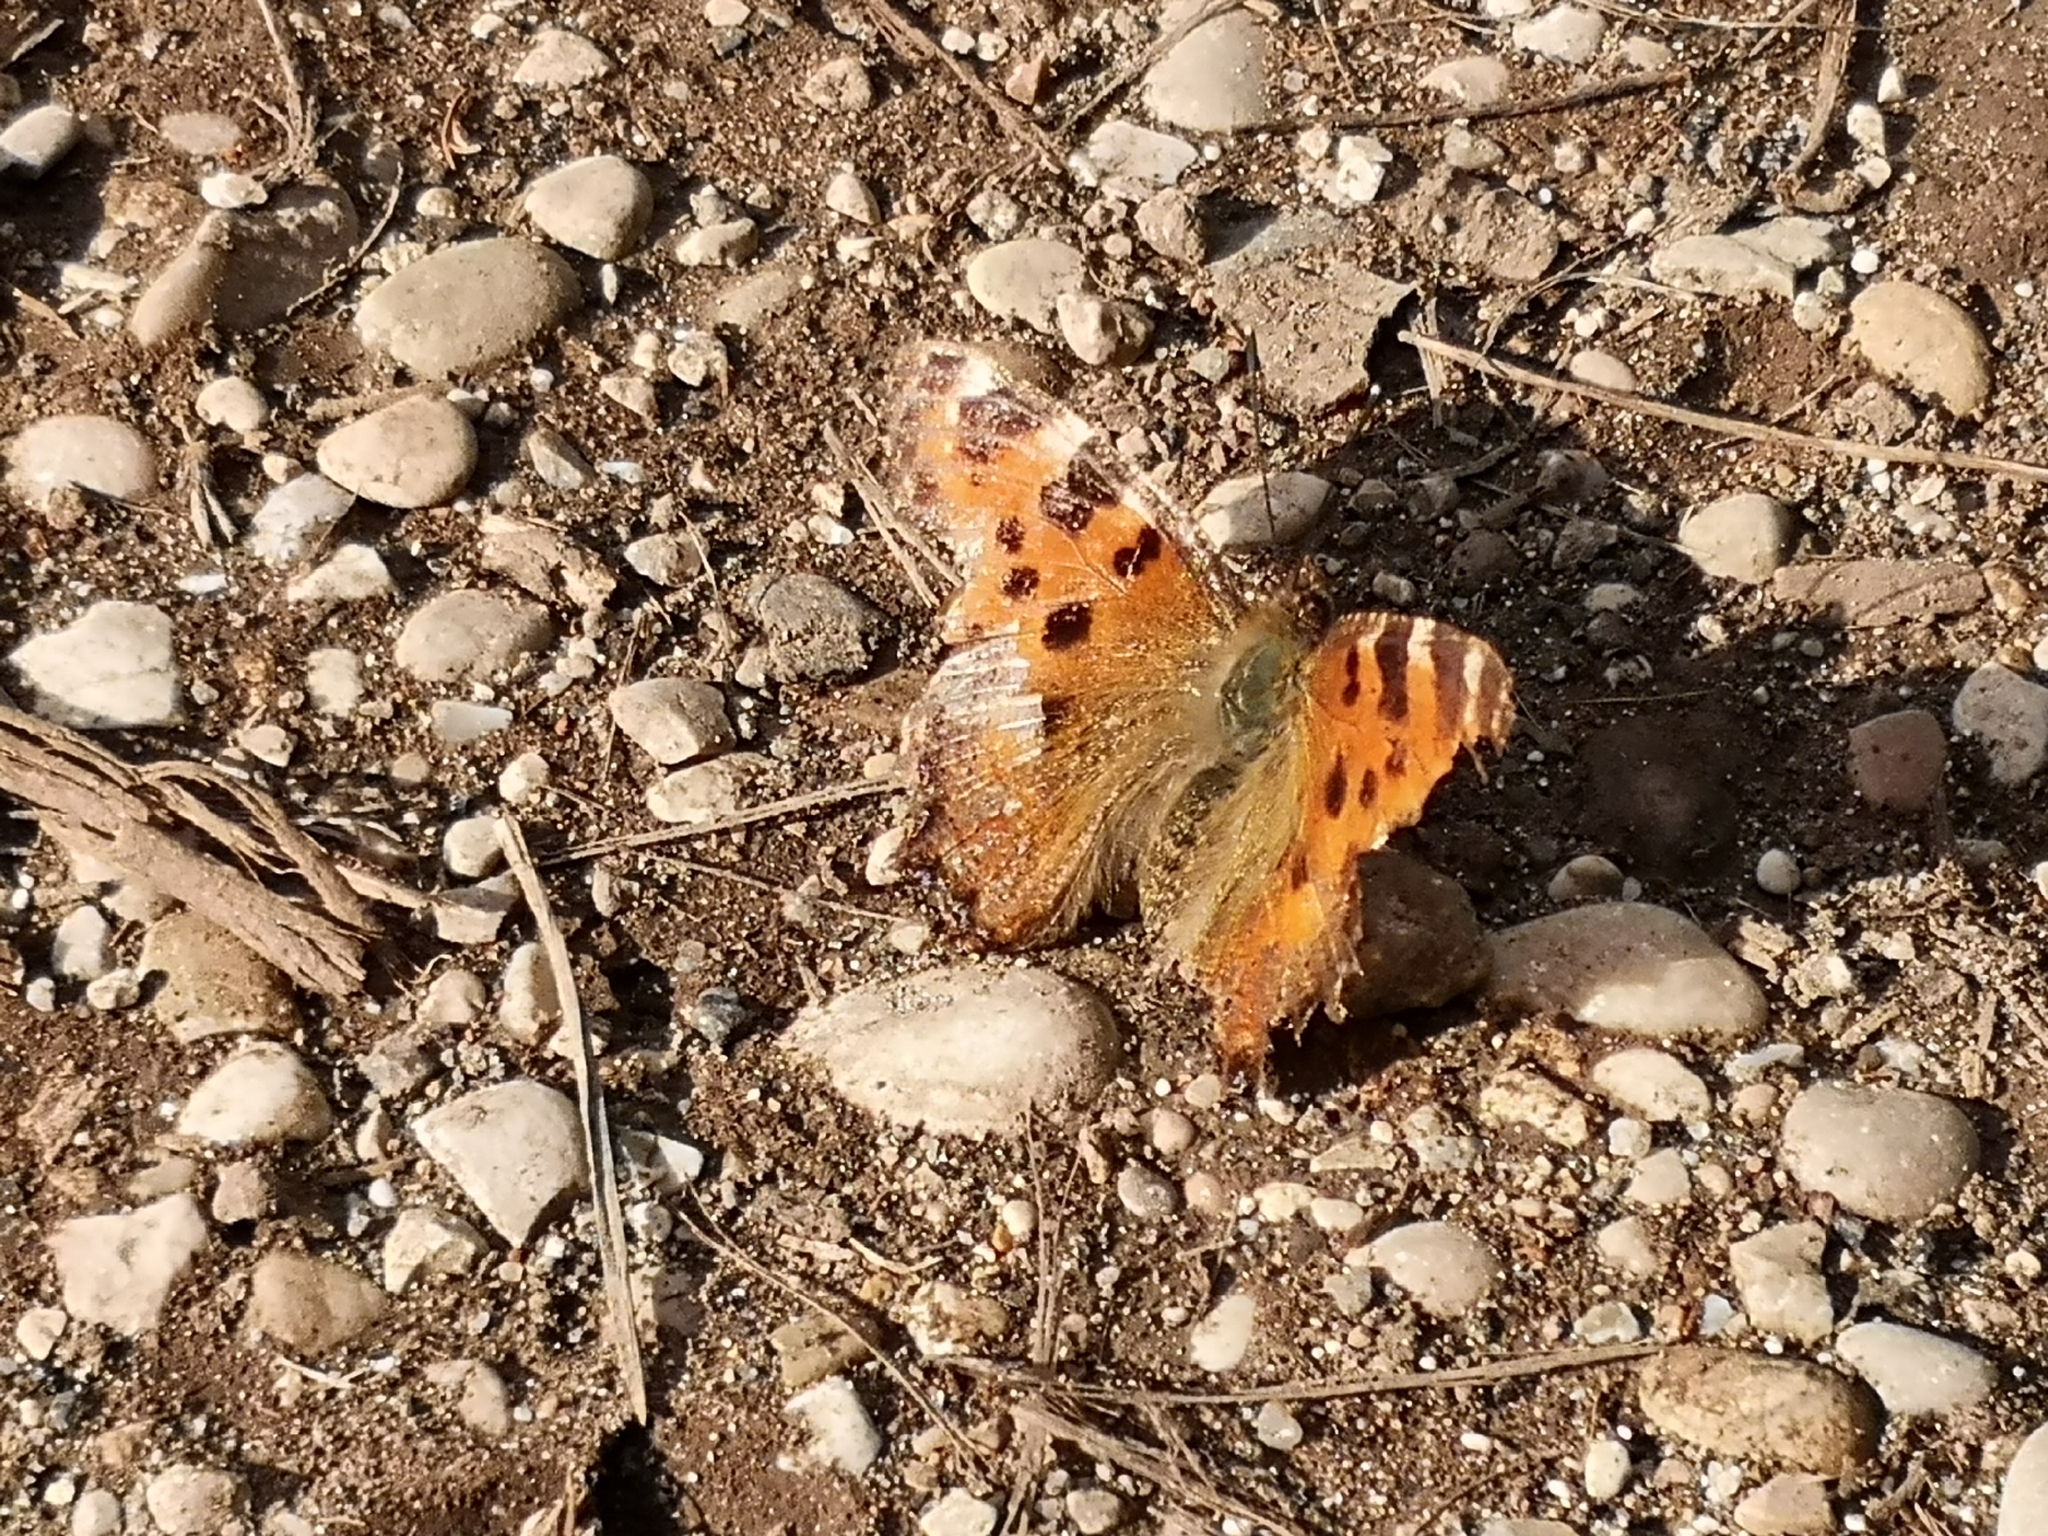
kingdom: Animalia
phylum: Arthropoda
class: Insecta
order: Lepidoptera
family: Nymphalidae
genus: Nymphalis
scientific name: Nymphalis polychloros
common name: Large tortoiseshell
